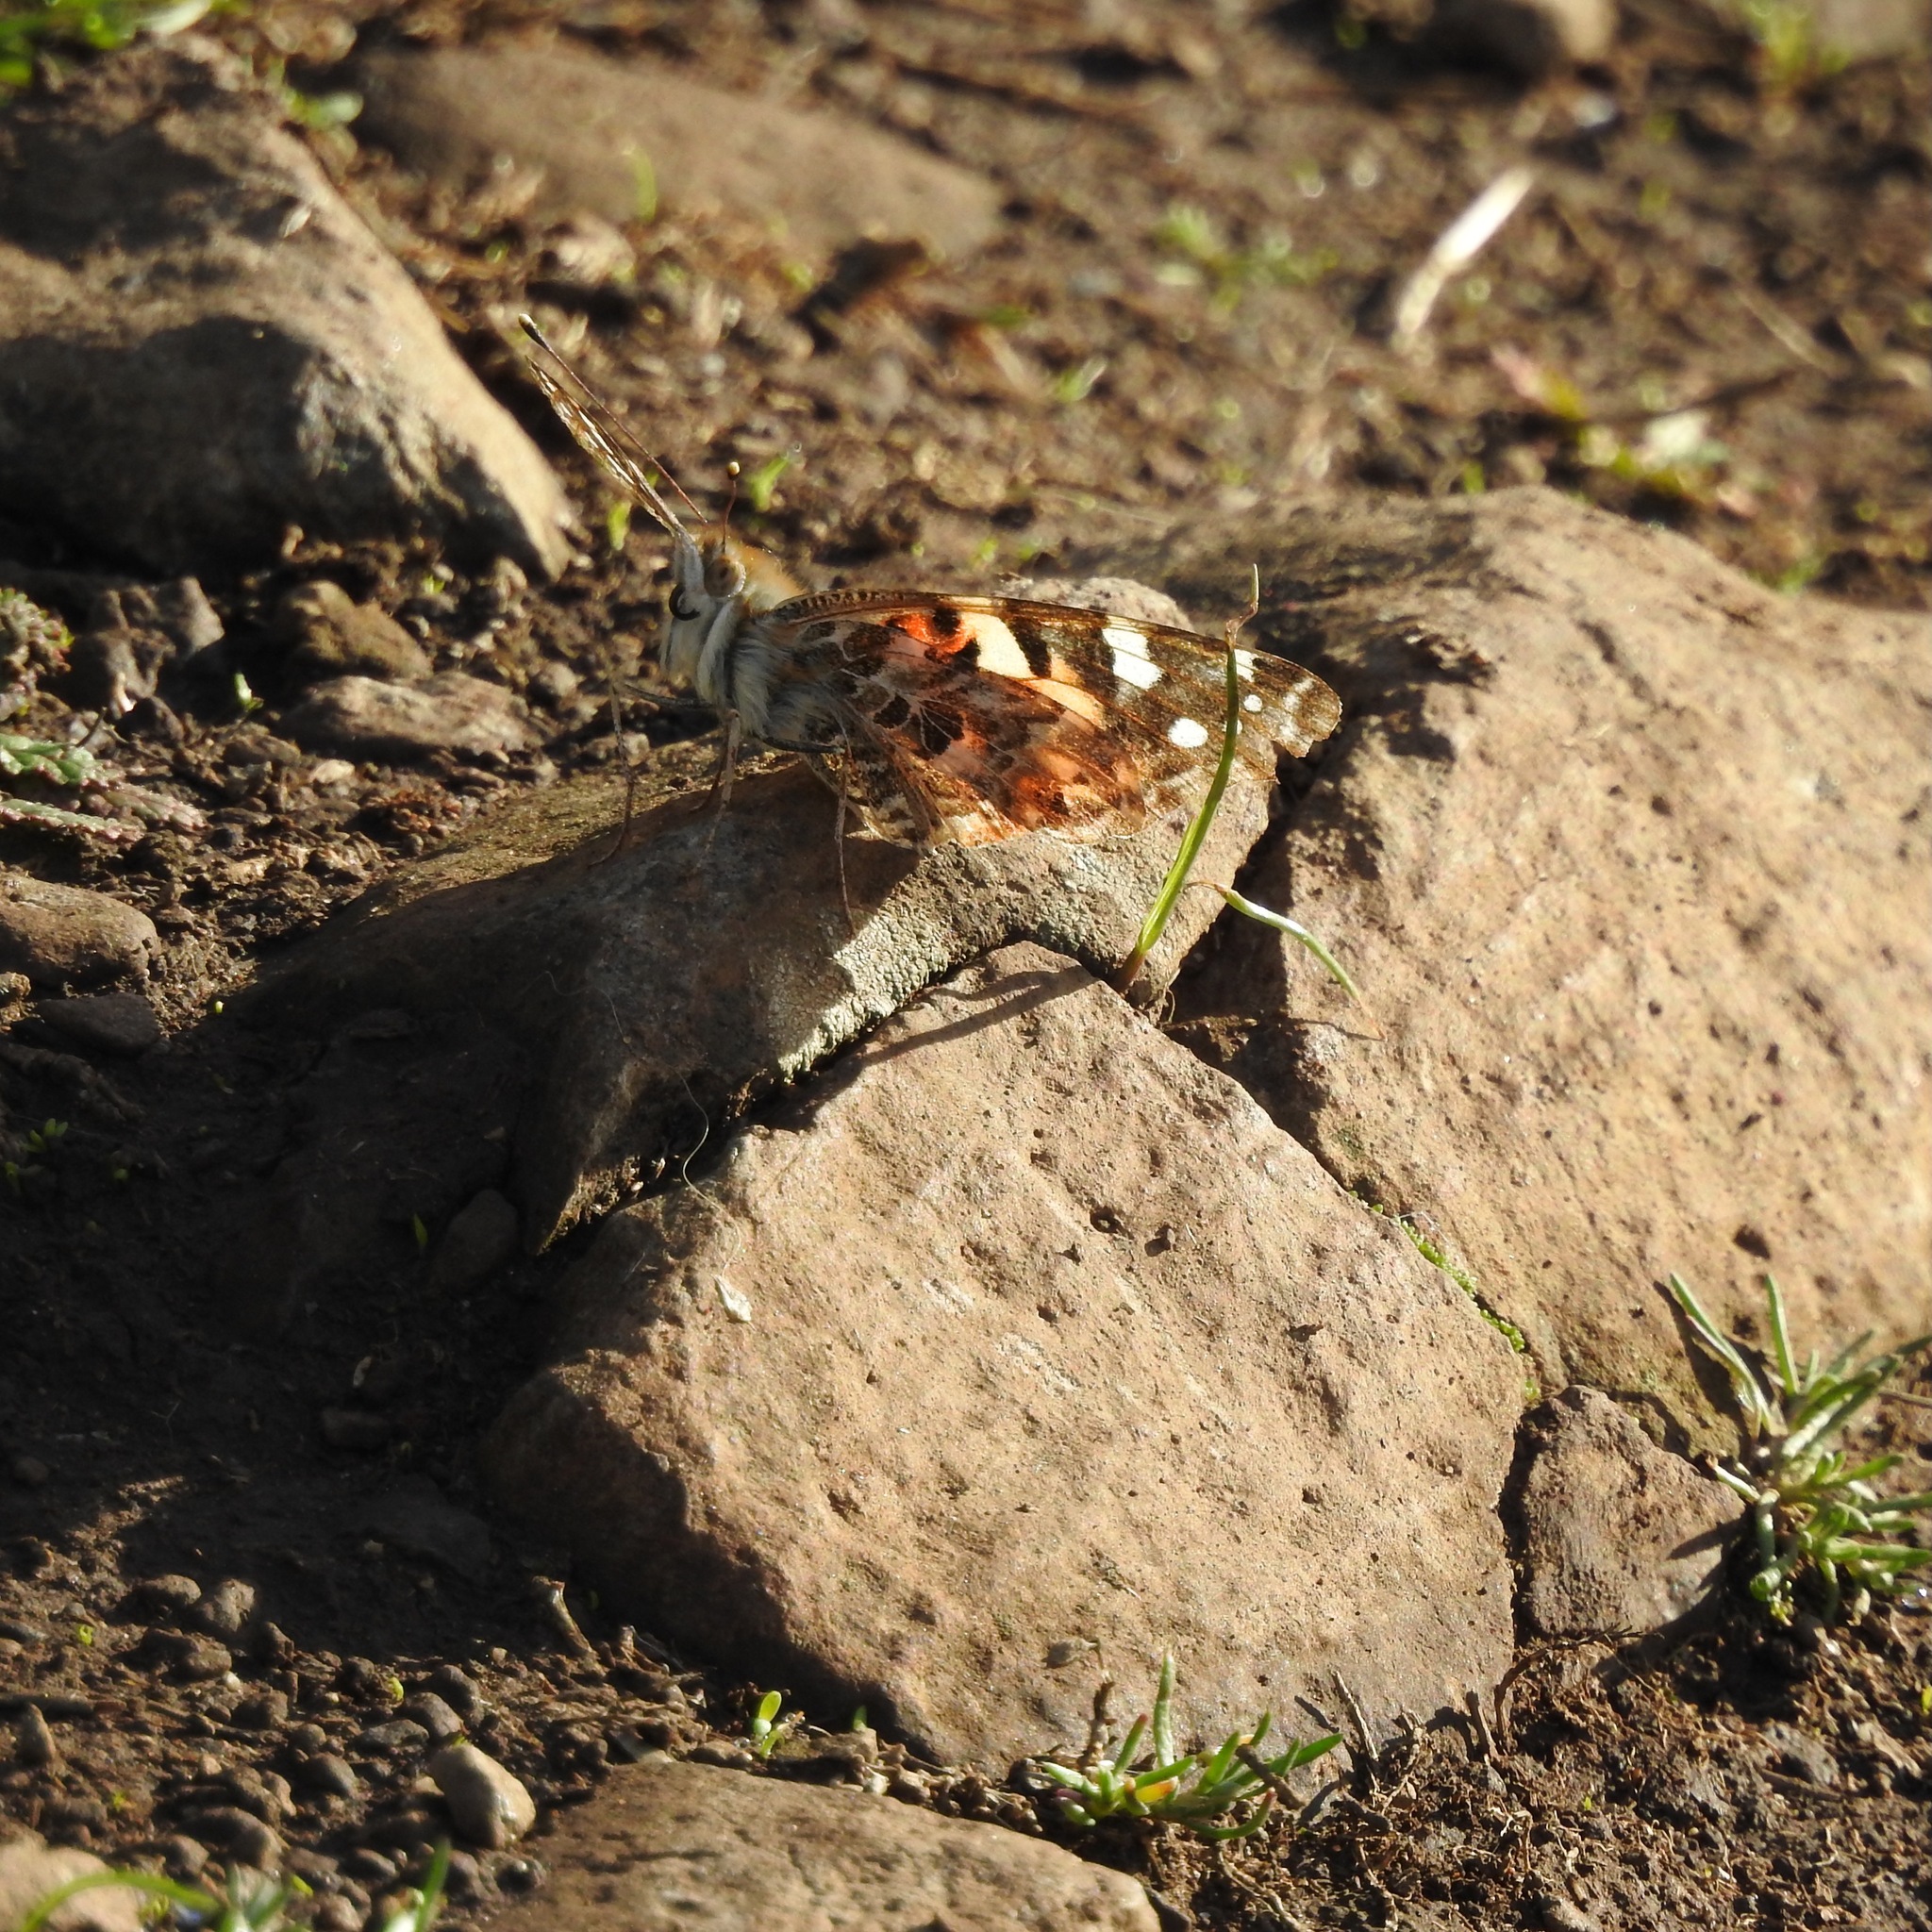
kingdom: Animalia
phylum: Arthropoda
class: Insecta
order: Lepidoptera
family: Nymphalidae
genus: Vanessa
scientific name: Vanessa cardui
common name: Painted lady
